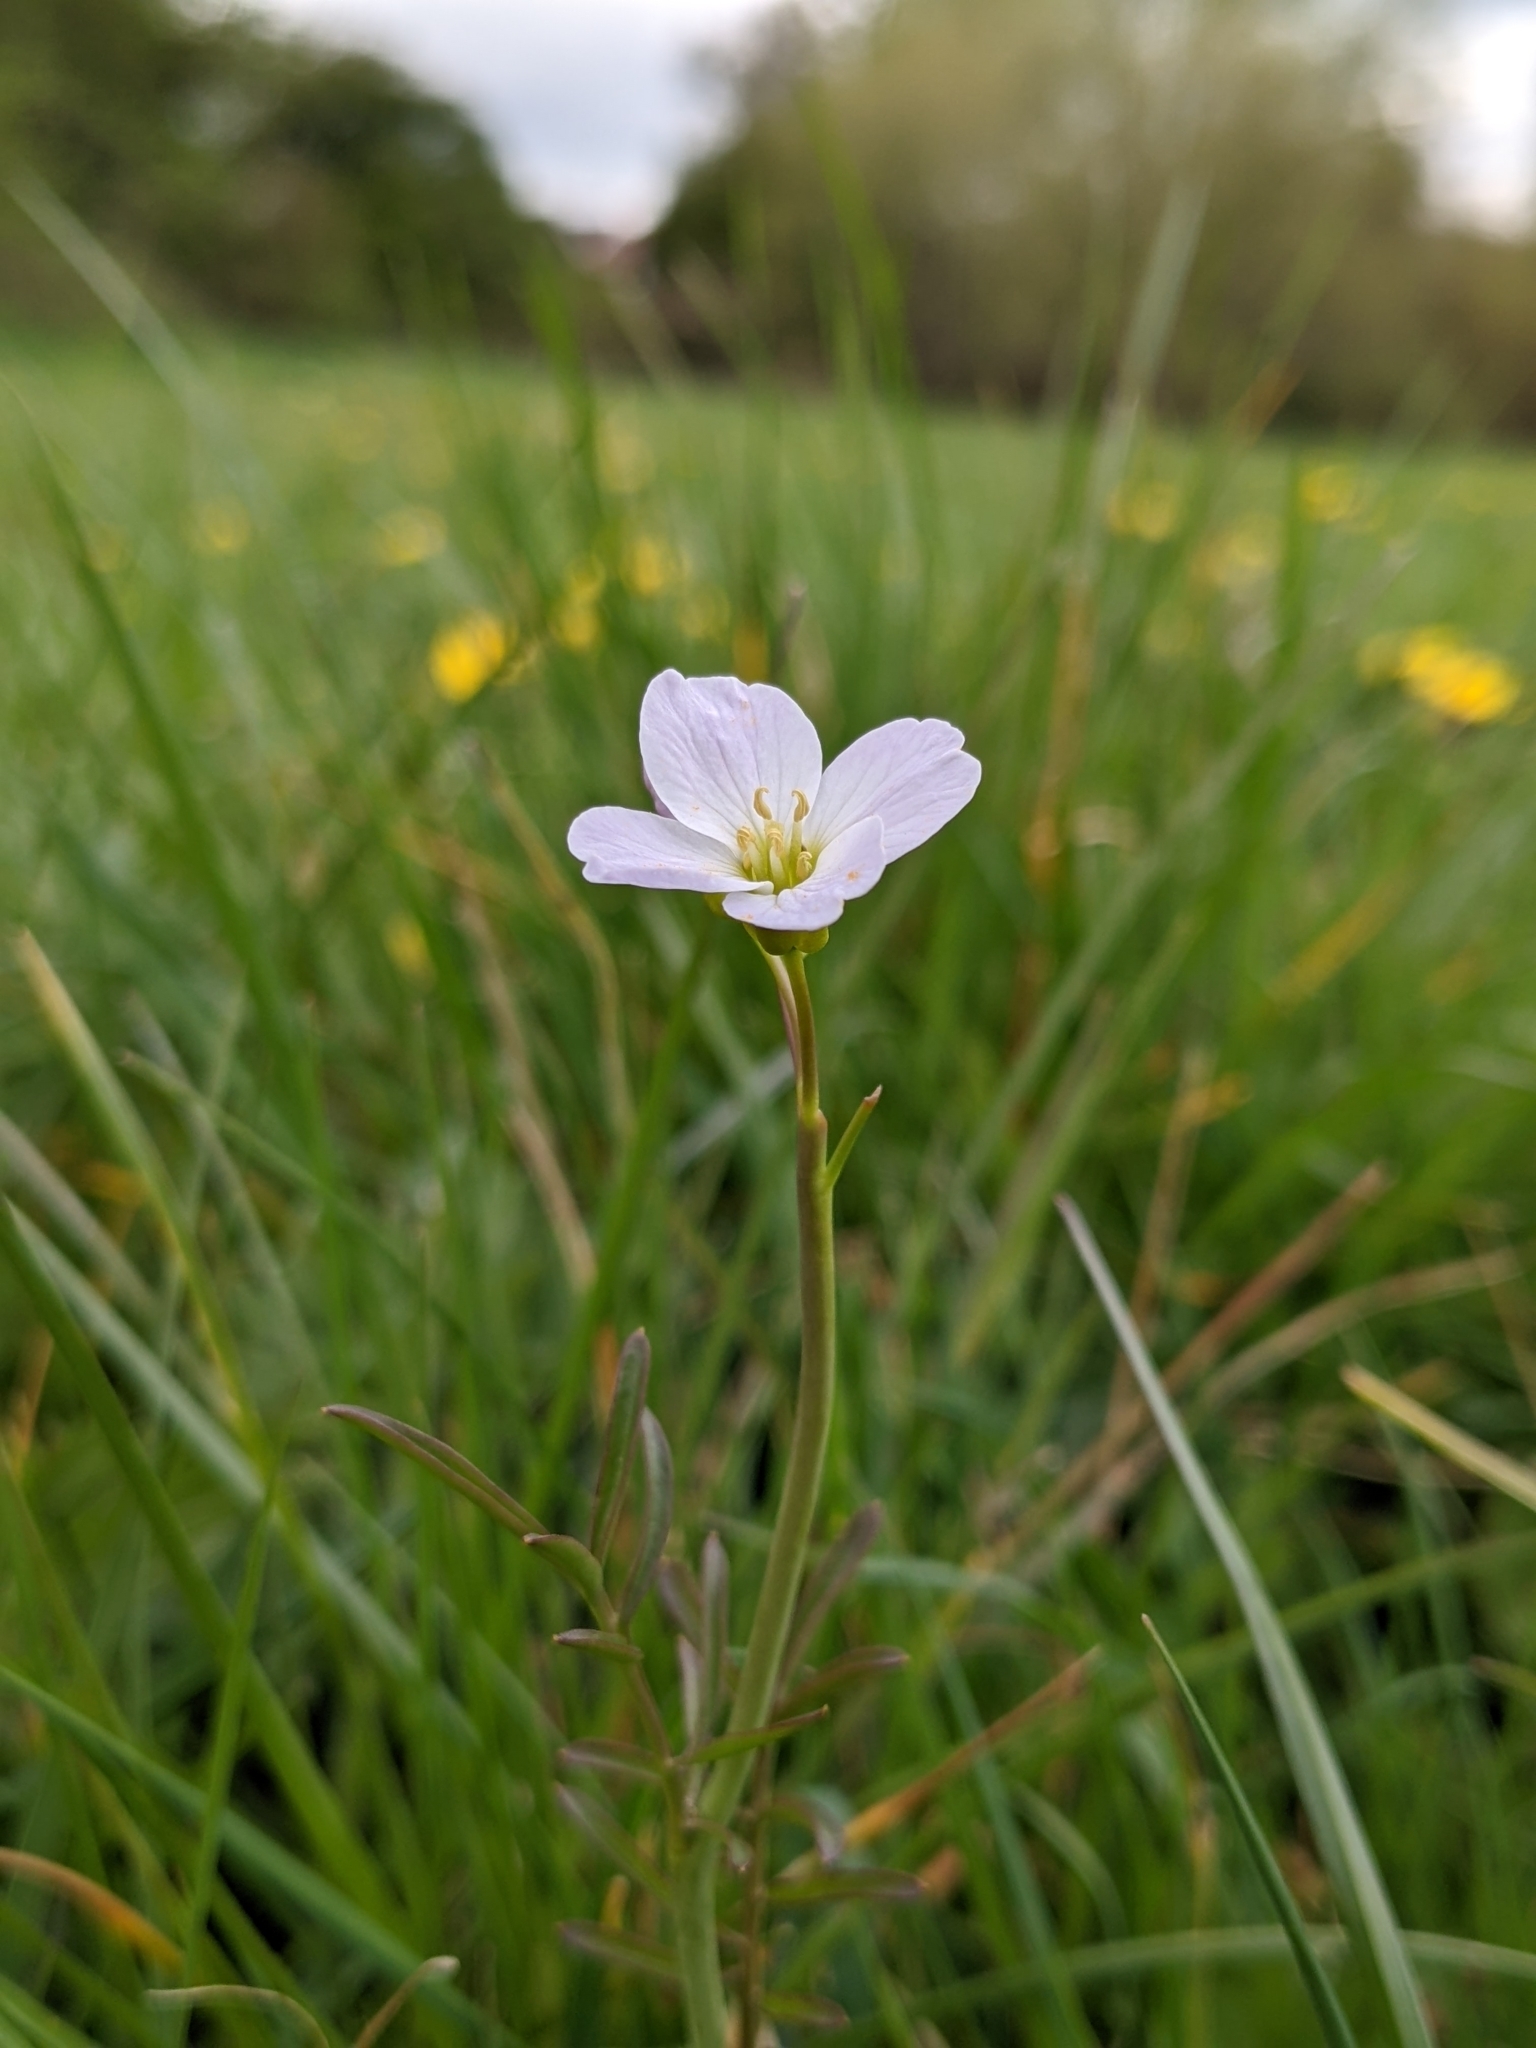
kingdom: Plantae
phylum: Tracheophyta
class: Magnoliopsida
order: Brassicales
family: Brassicaceae
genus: Cardamine
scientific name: Cardamine pratensis
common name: Cuckoo flower
